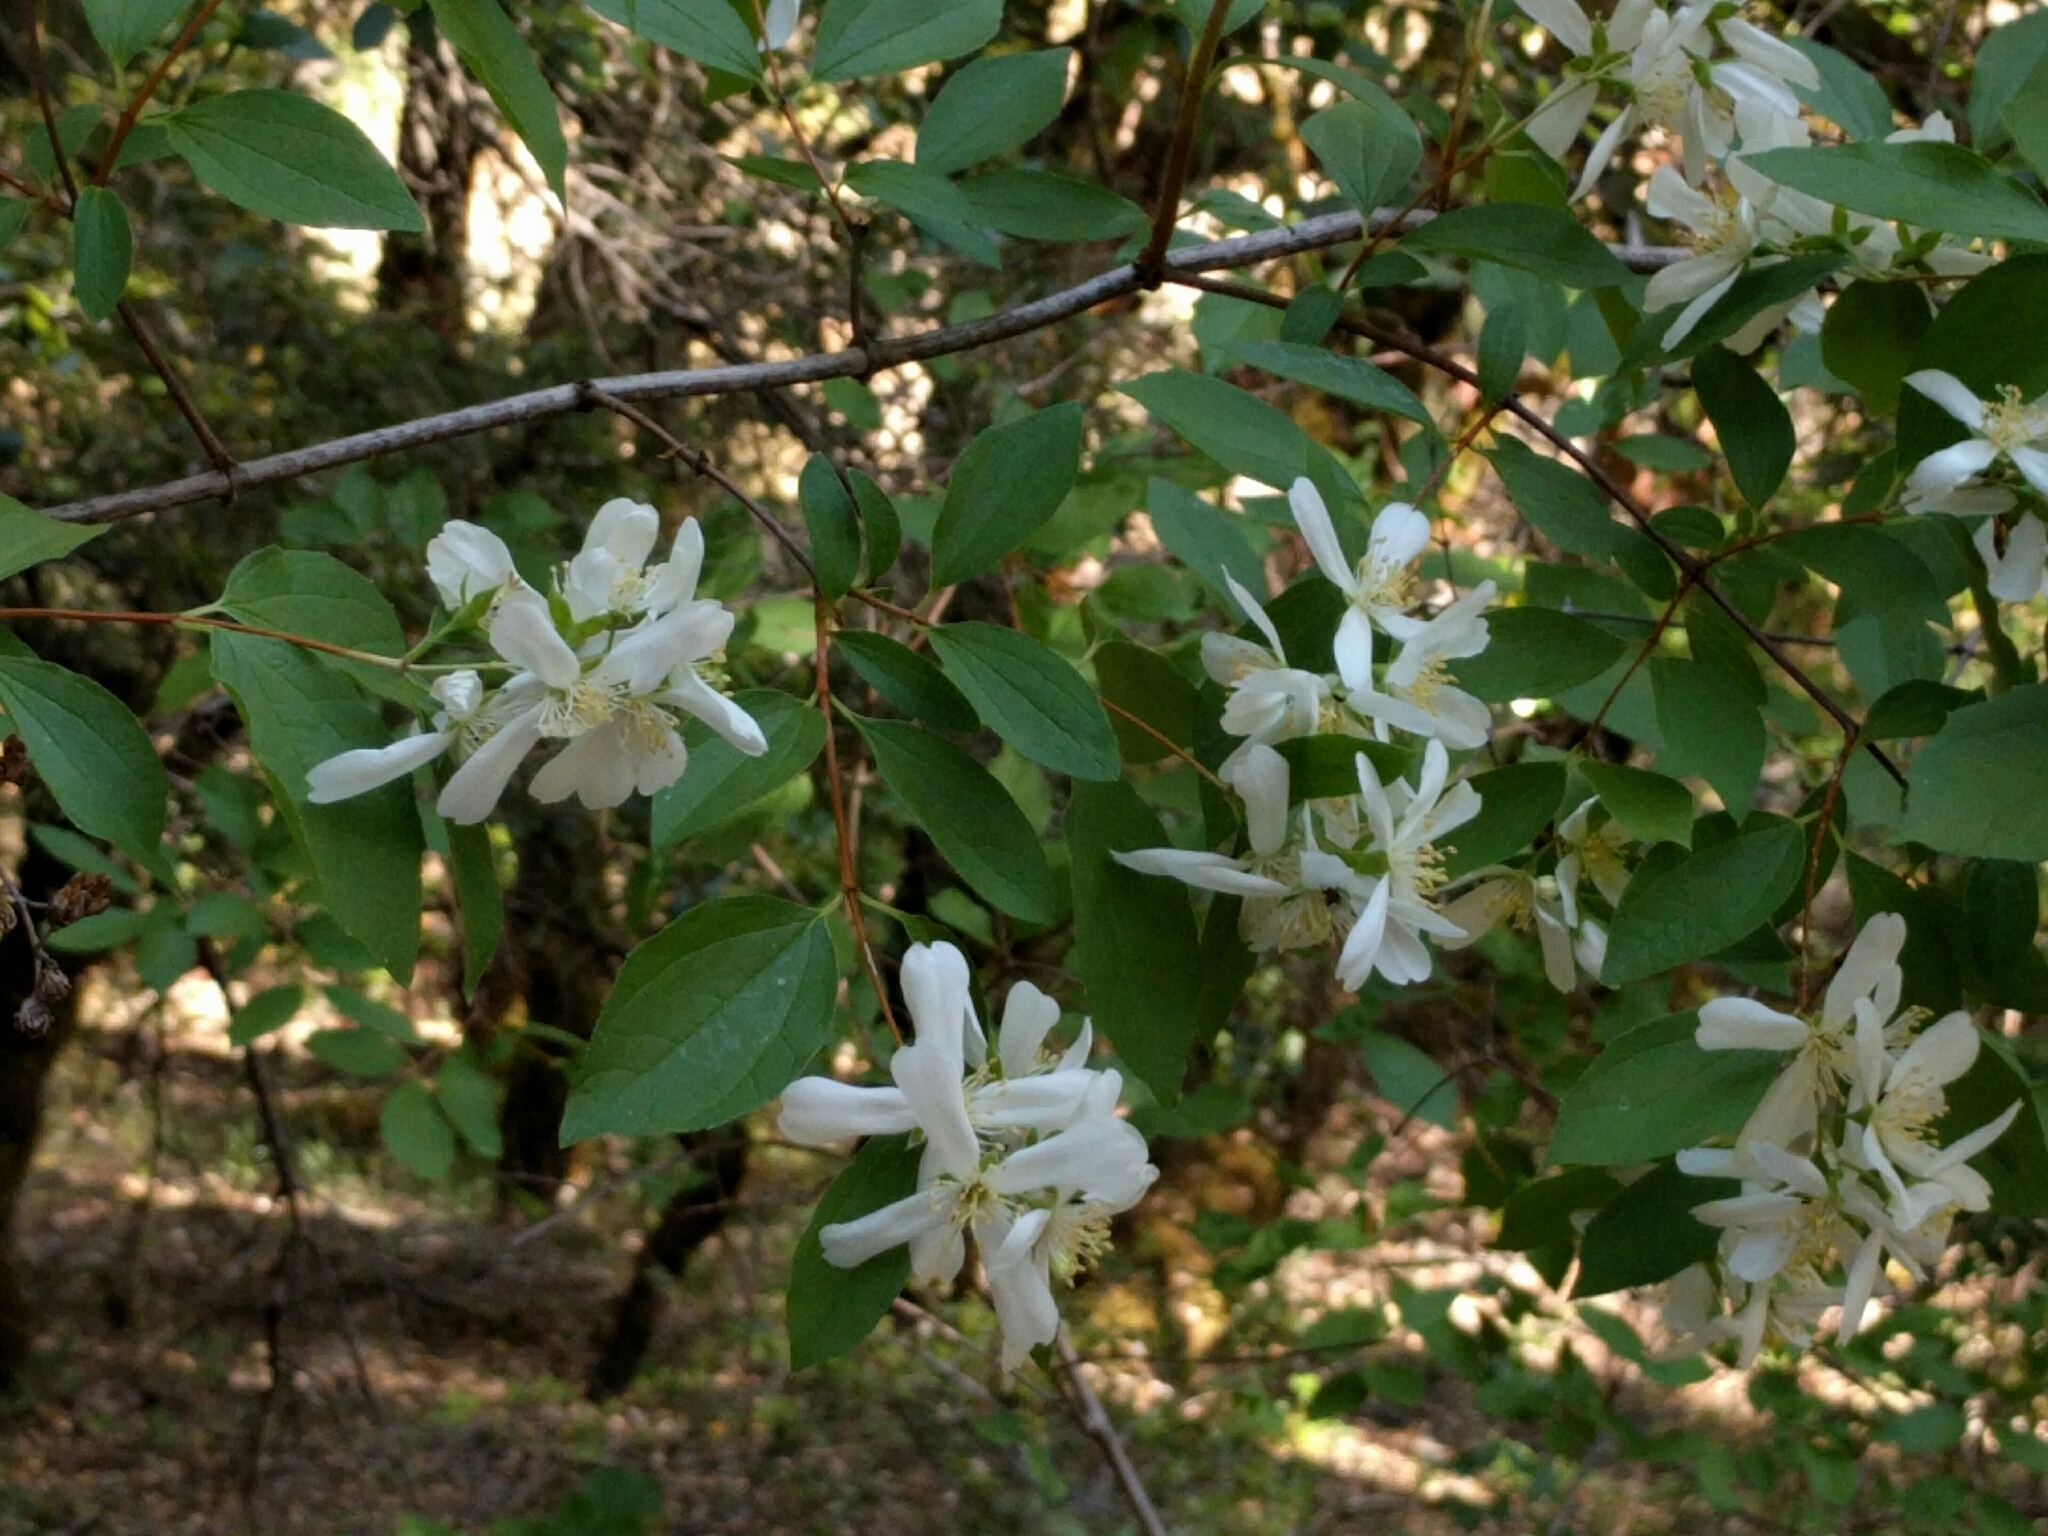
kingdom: Plantae
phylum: Tracheophyta
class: Magnoliopsida
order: Cornales
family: Hydrangeaceae
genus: Philadelphus
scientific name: Philadelphus lewisii
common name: Lewis's mock orange
